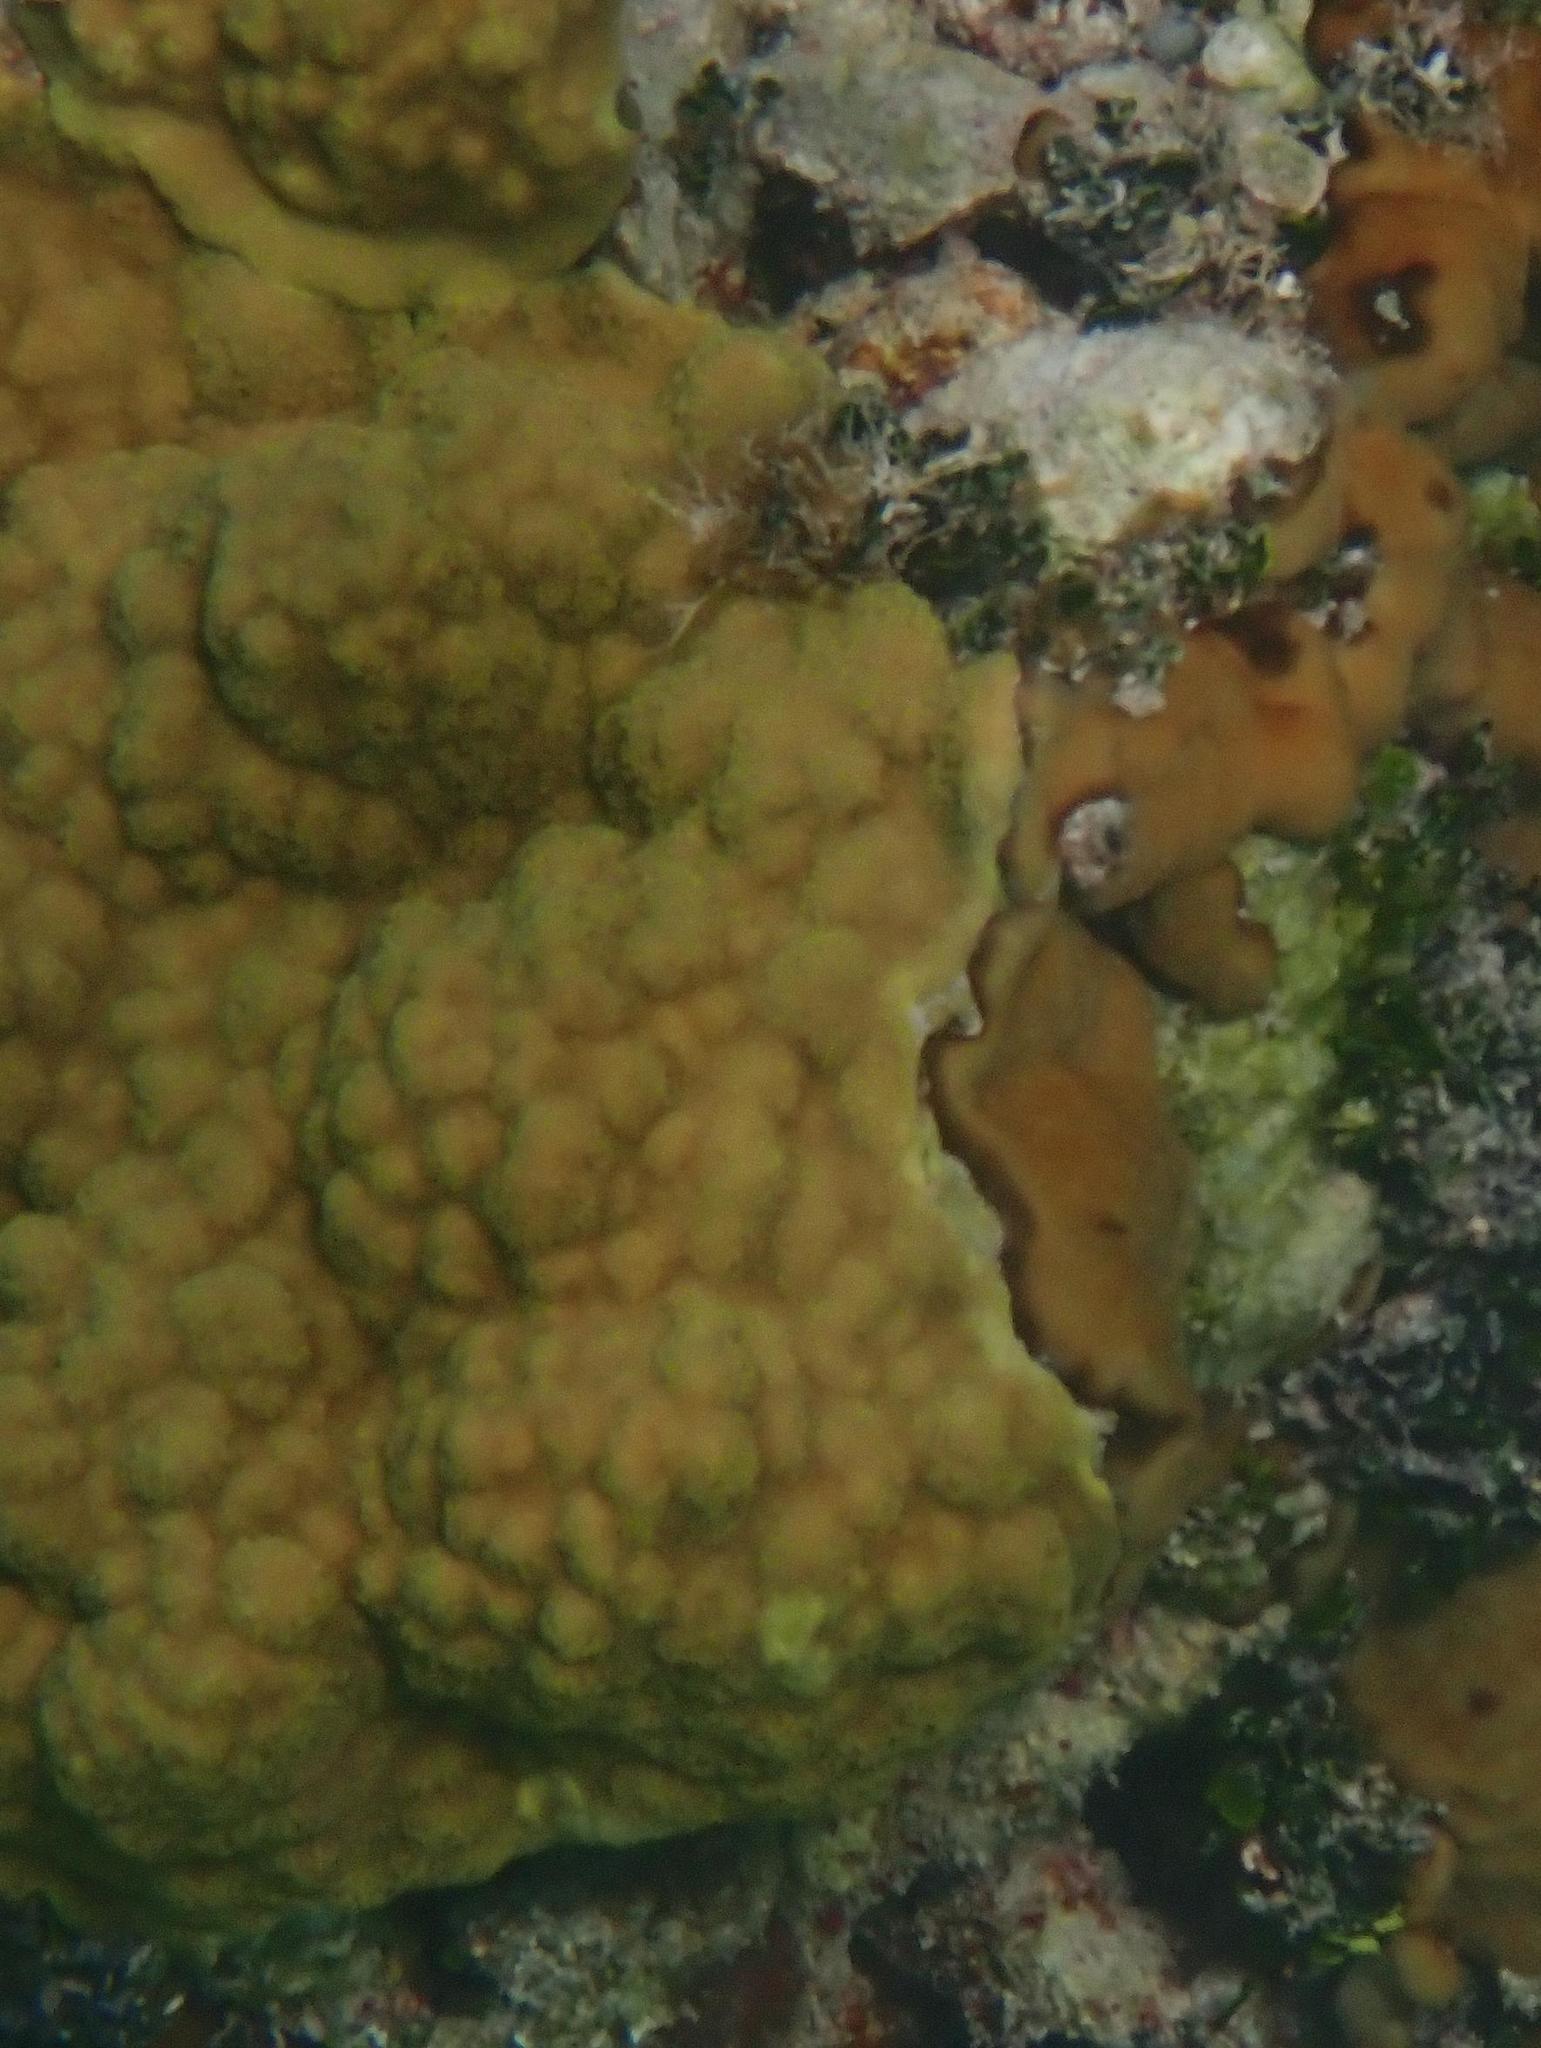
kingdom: Animalia
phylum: Cnidaria
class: Anthozoa
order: Scleractinia
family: Poritidae
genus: Porites
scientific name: Porites astreoides
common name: Mustard hill coral
